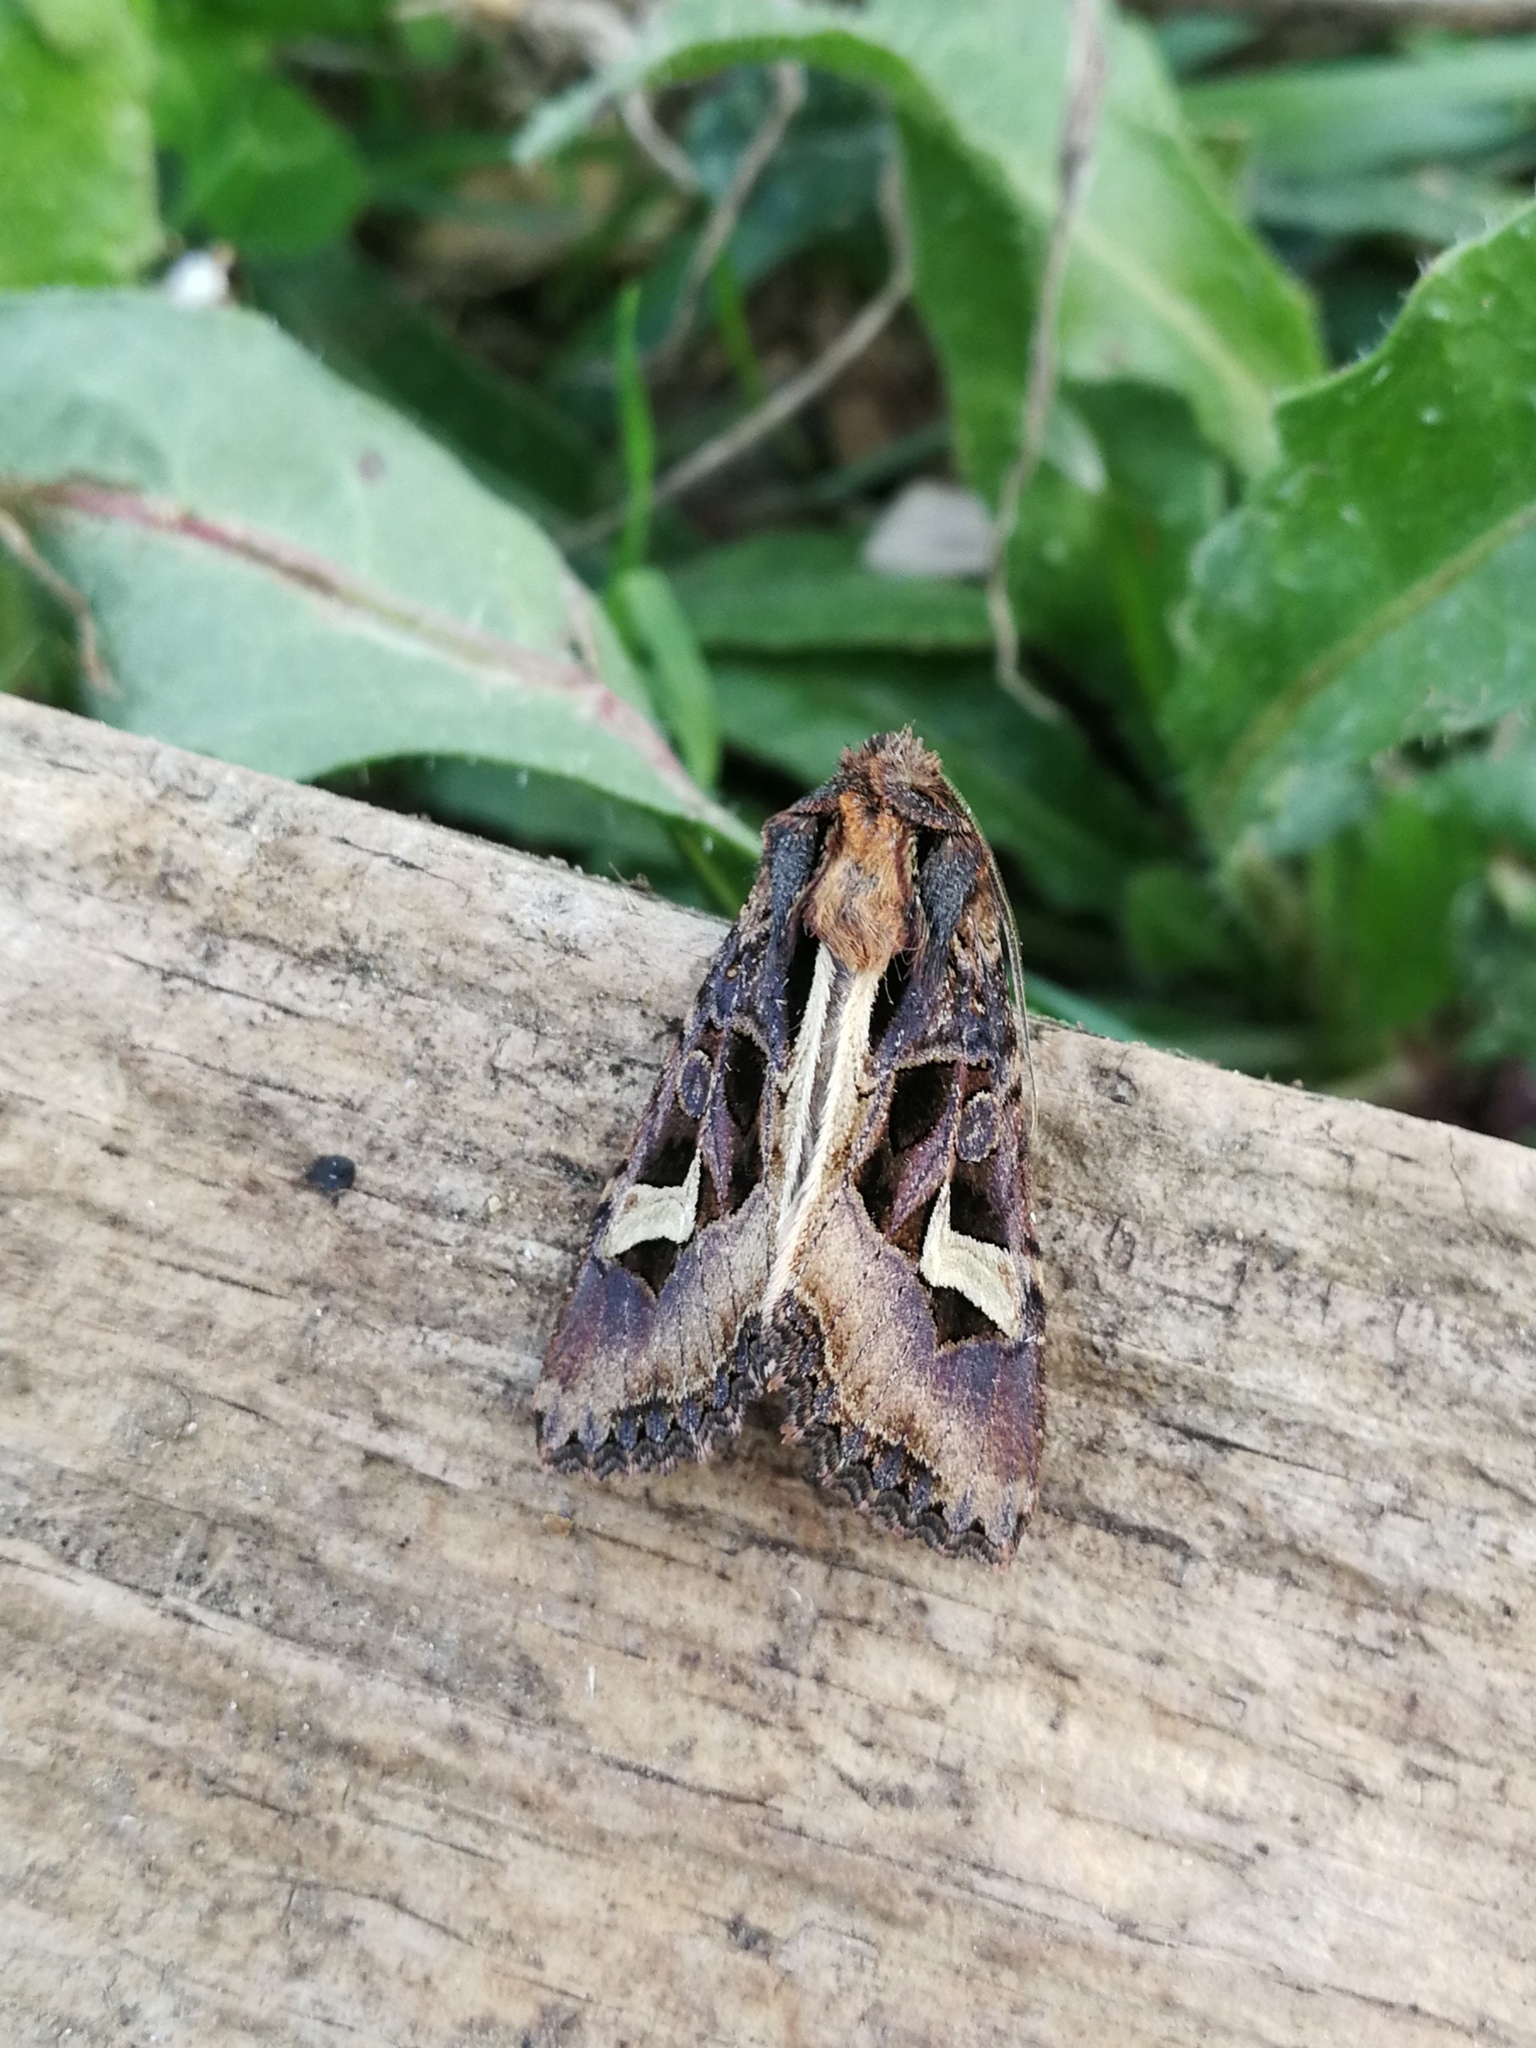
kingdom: Animalia
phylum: Arthropoda
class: Insecta
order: Lepidoptera
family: Noctuidae
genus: Trigonophora
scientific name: Trigonophora flammea
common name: Flame brocade
